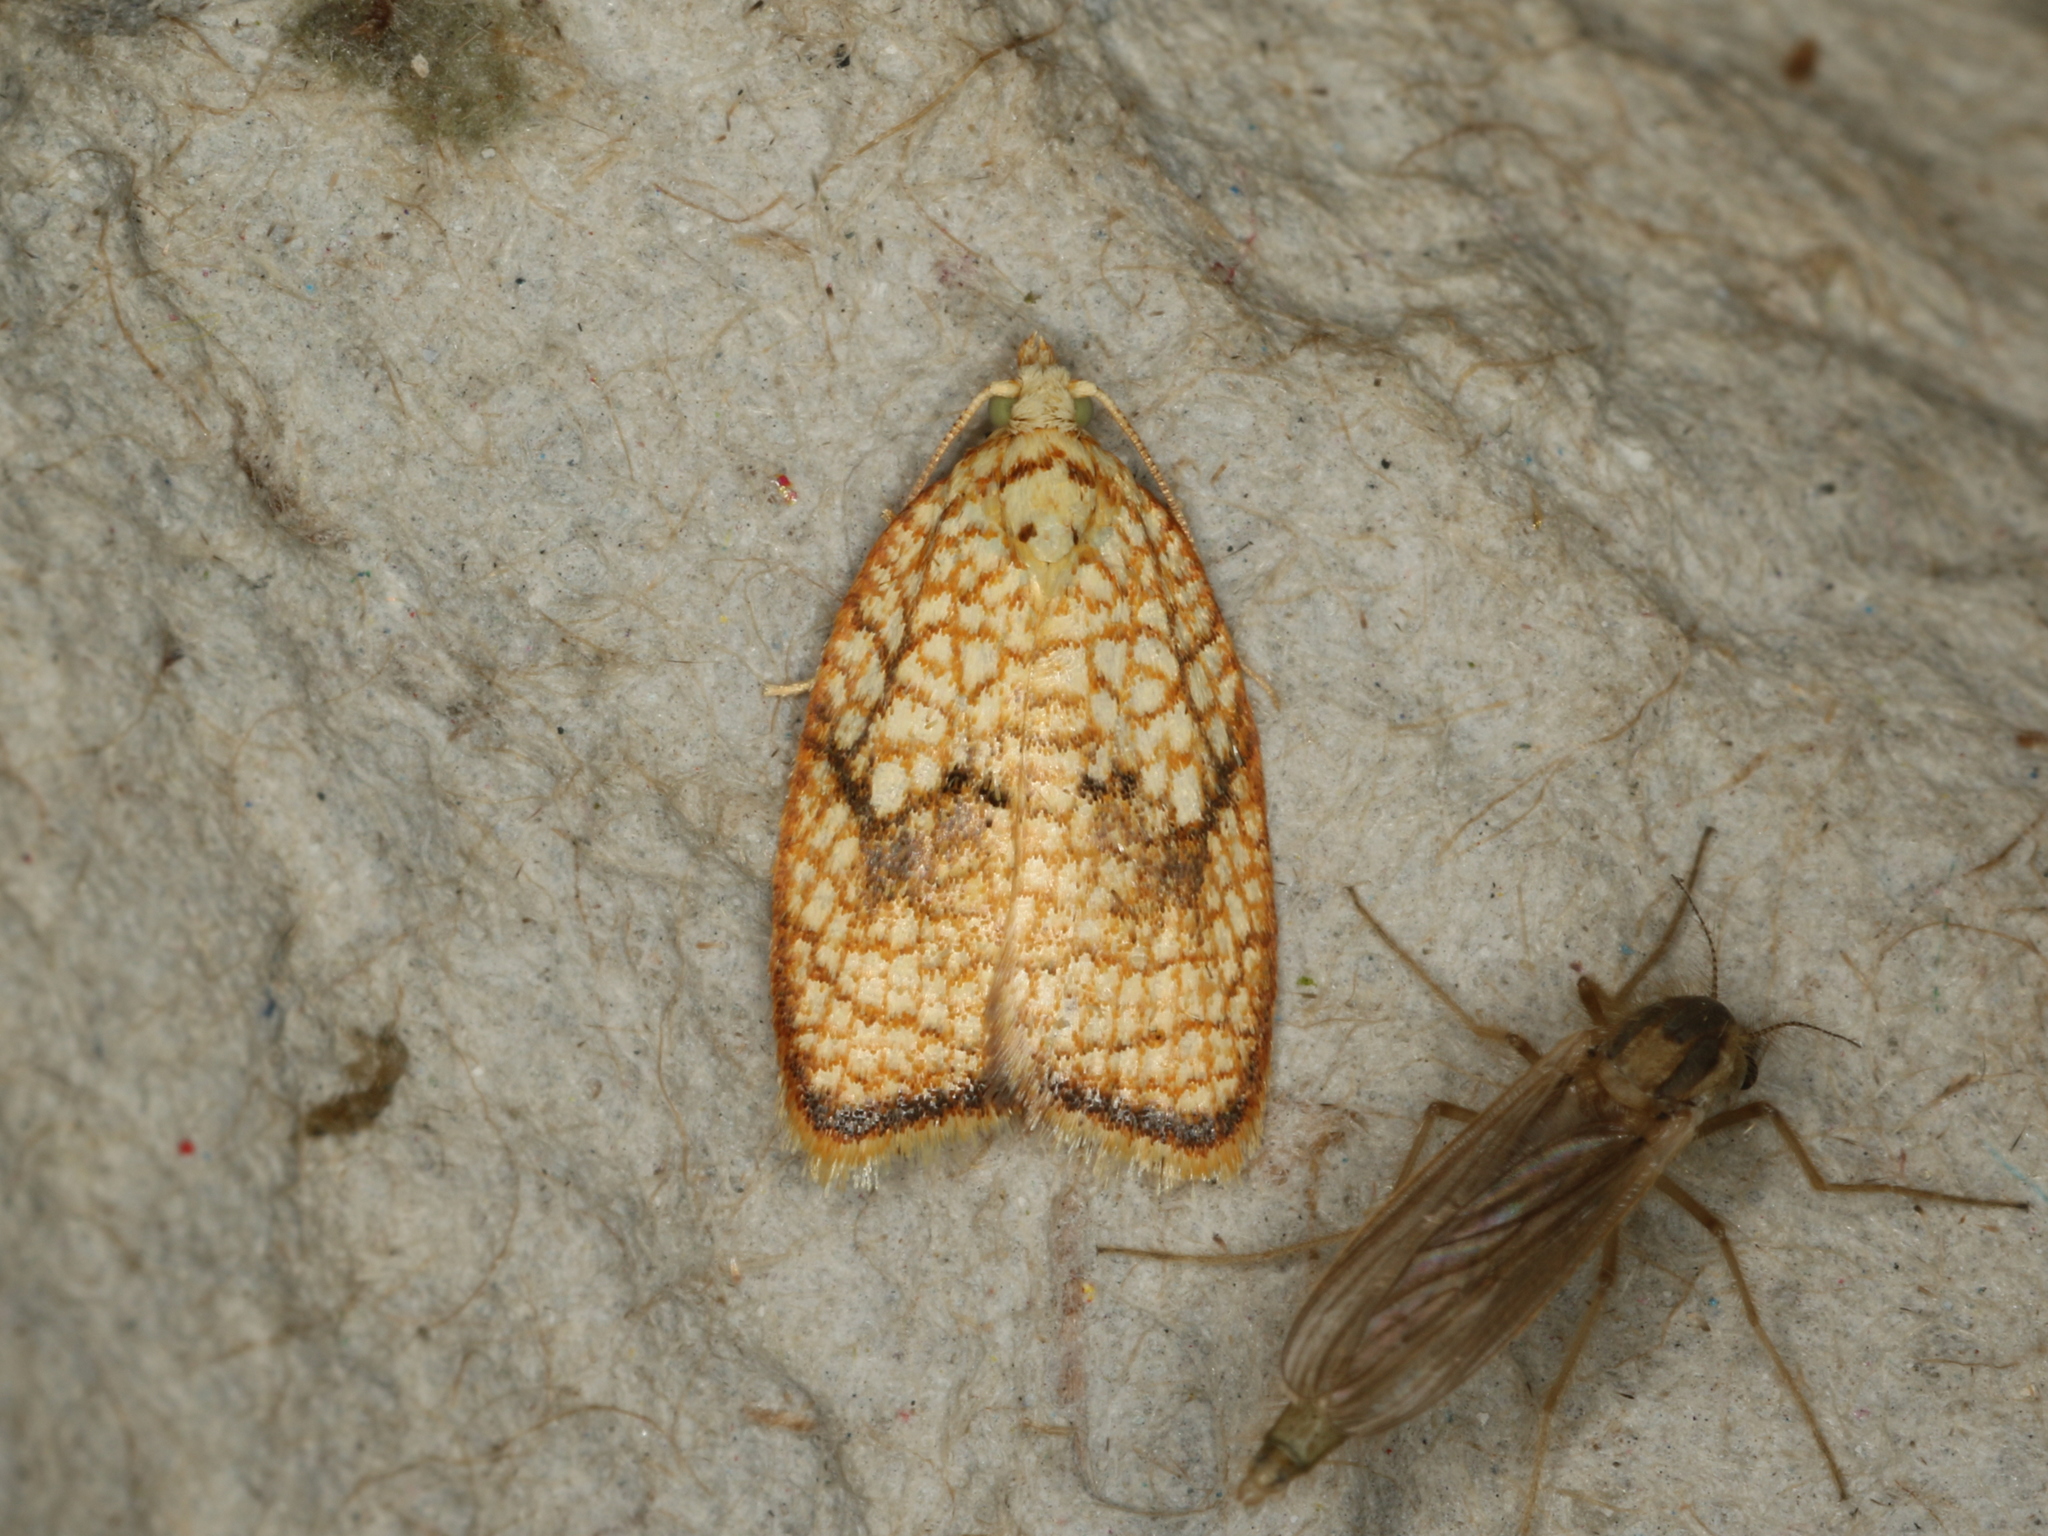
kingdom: Animalia
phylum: Arthropoda
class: Insecta
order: Lepidoptera
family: Tortricidae
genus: Acleris
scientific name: Acleris forsskaleana
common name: Maple button
